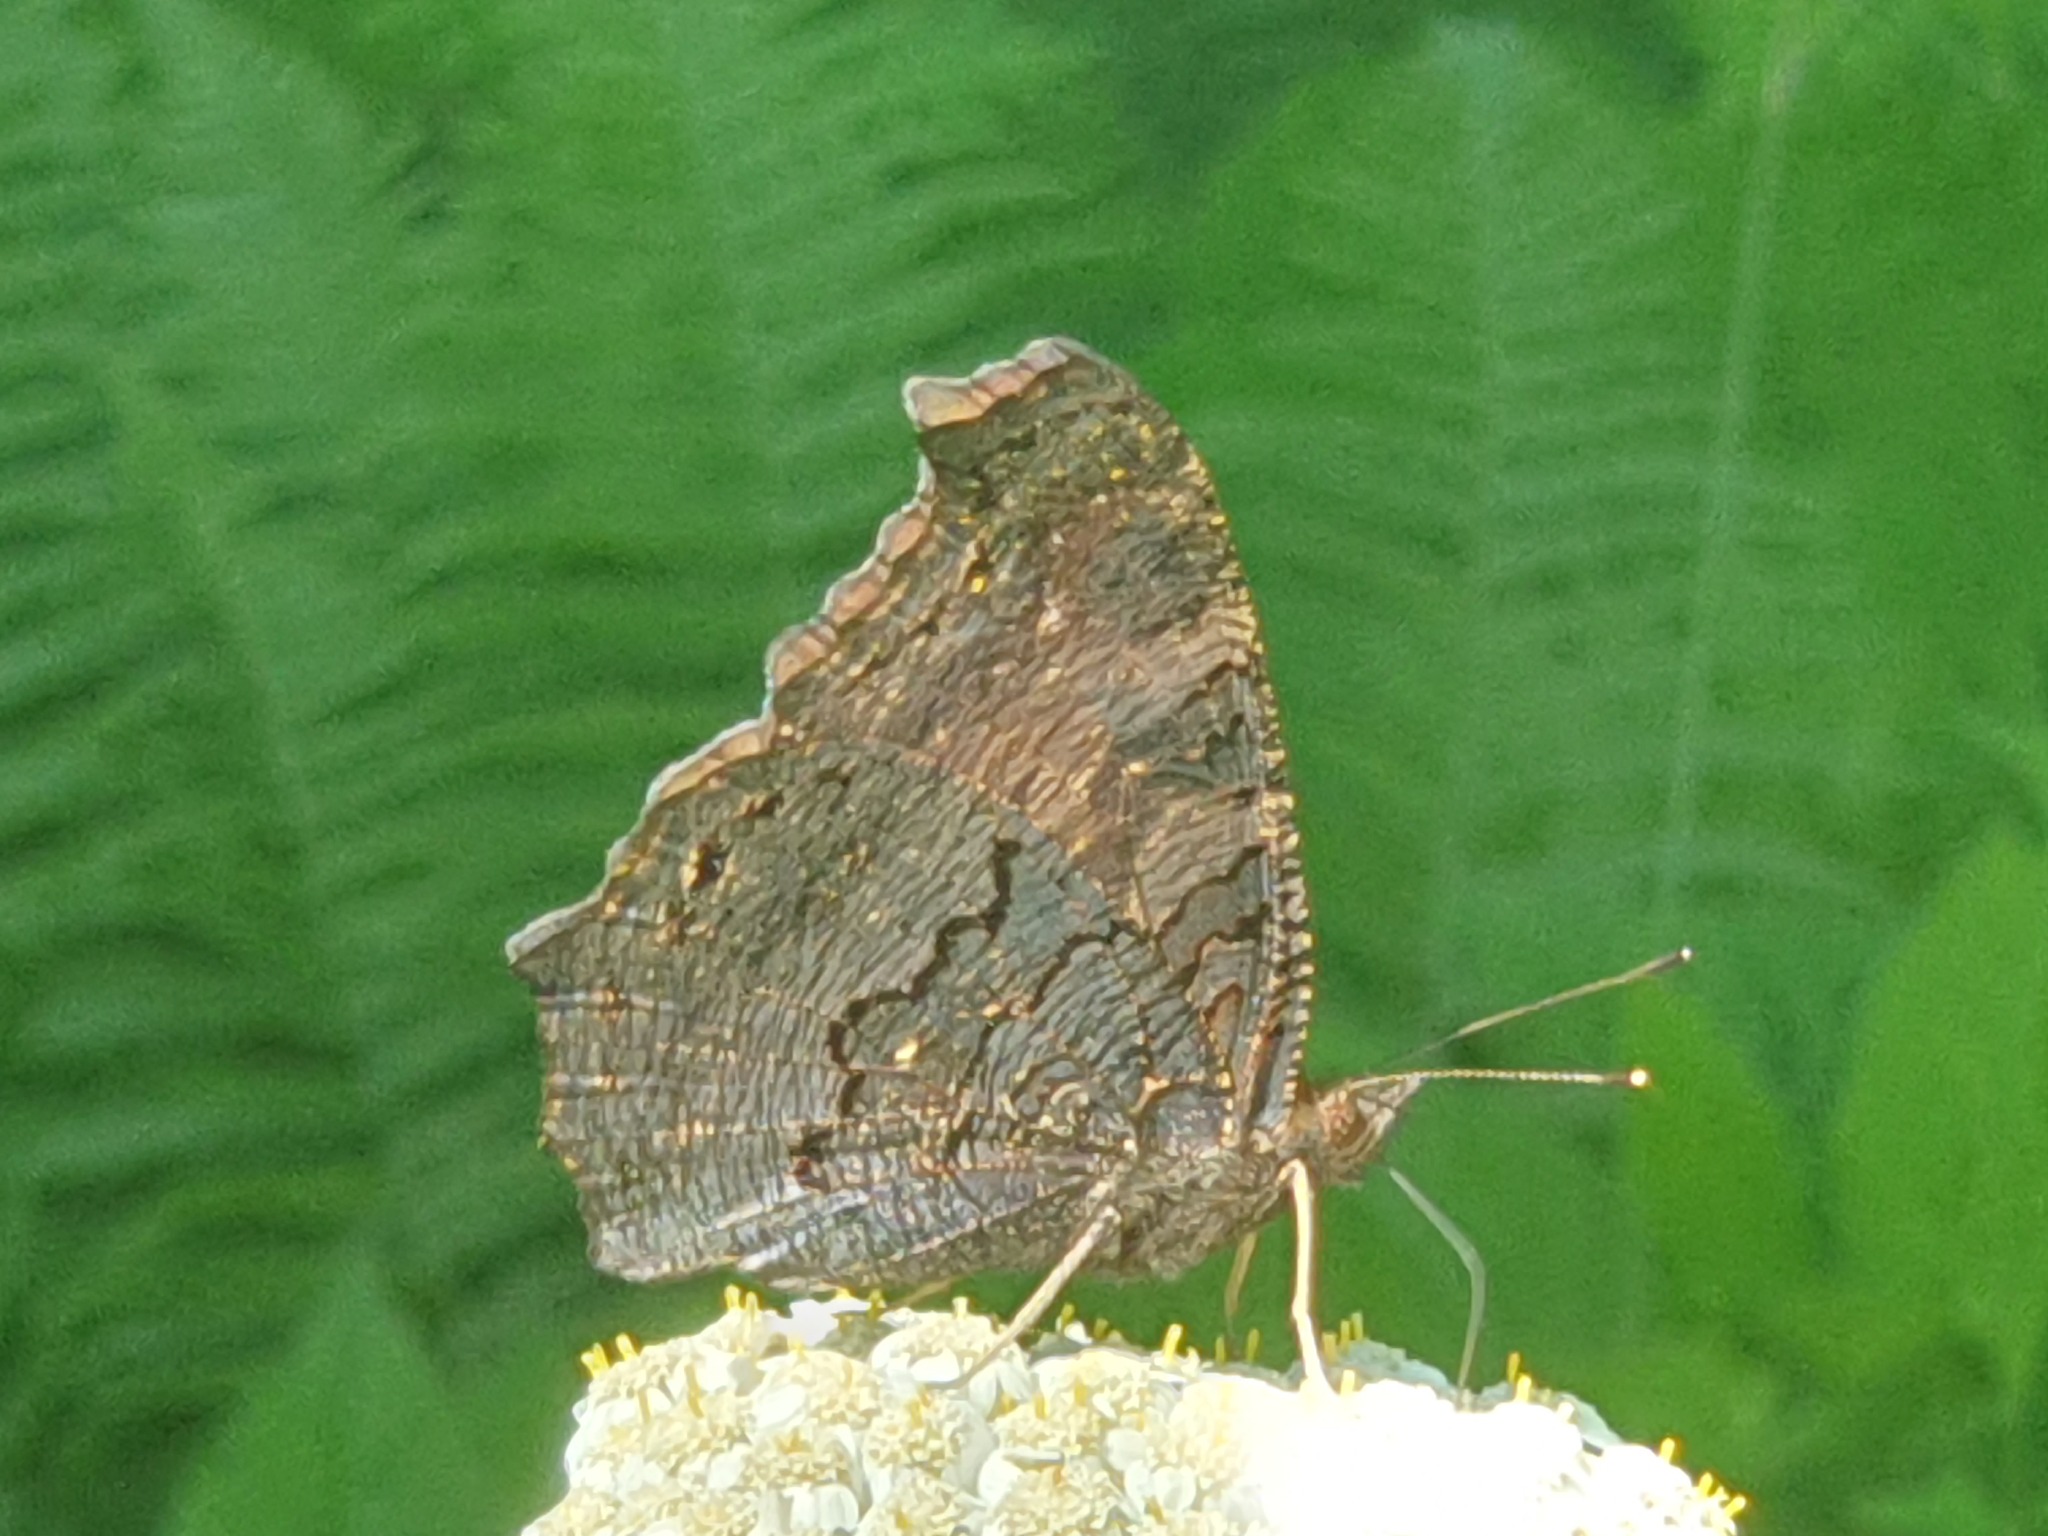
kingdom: Animalia
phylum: Arthropoda
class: Insecta
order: Lepidoptera
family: Nymphalidae
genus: Aglais
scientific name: Aglais io
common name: Peacock
